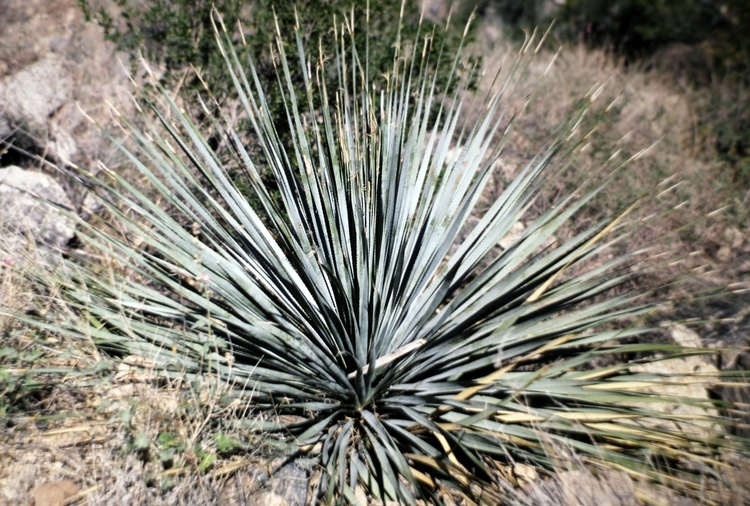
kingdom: Plantae
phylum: Tracheophyta
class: Liliopsida
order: Asparagales
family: Asparagaceae
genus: Dasylirion
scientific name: Dasylirion wheeleri
